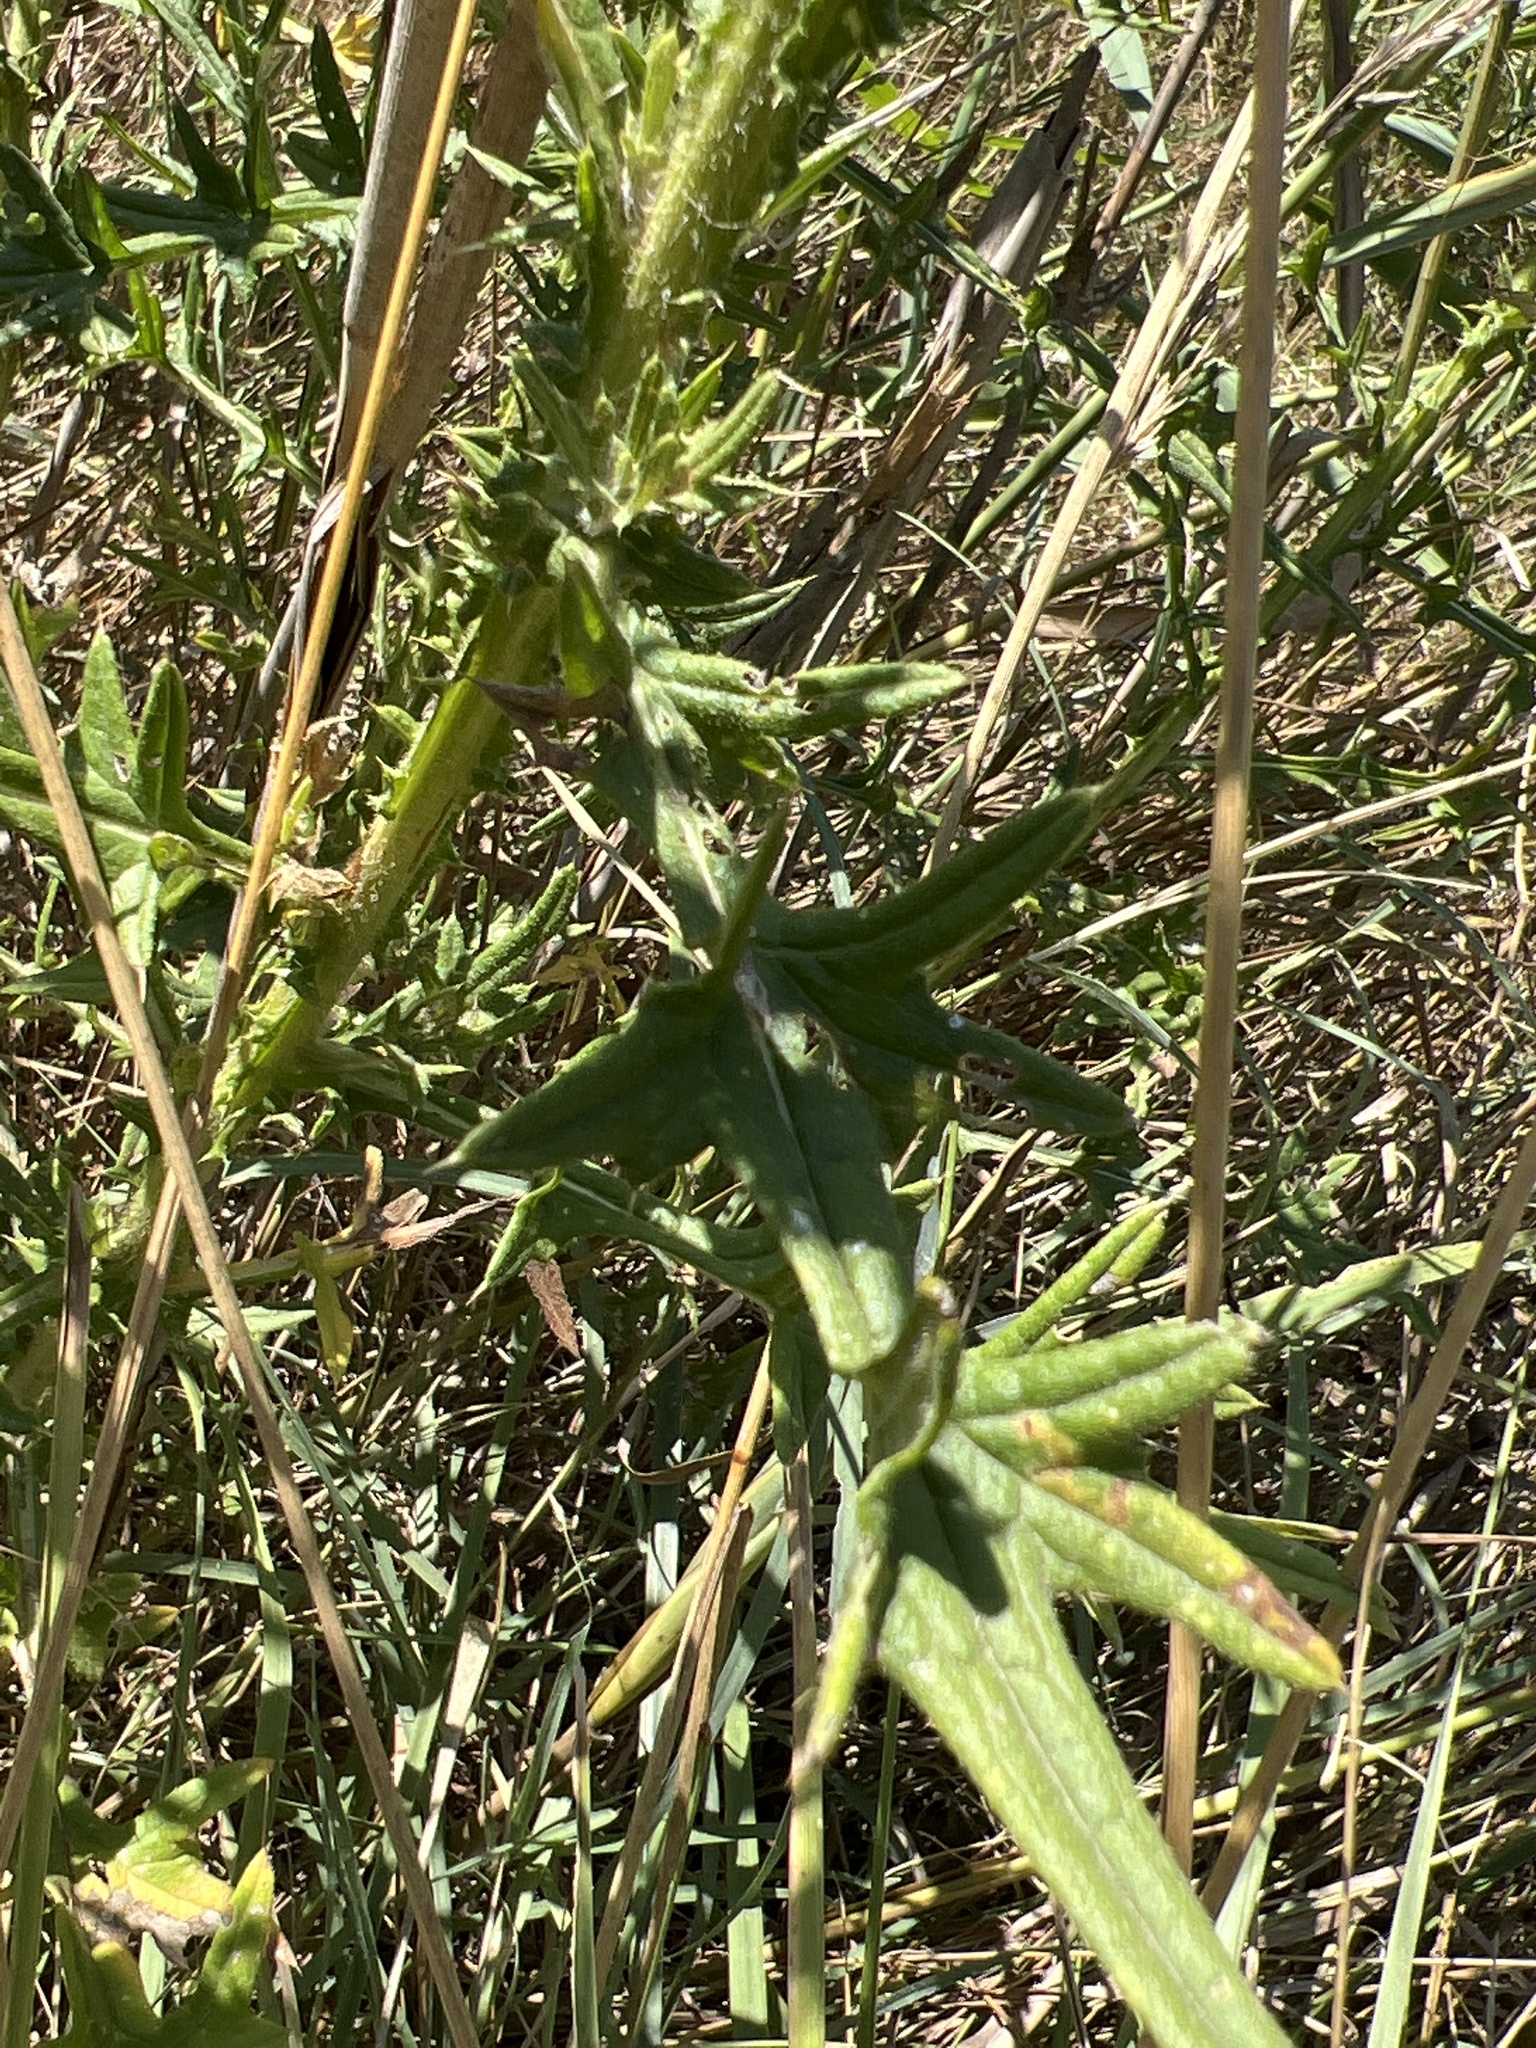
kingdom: Plantae
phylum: Tracheophyta
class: Magnoliopsida
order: Asterales
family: Asteraceae
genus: Cirsium
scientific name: Cirsium vulgare
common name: Bull thistle
